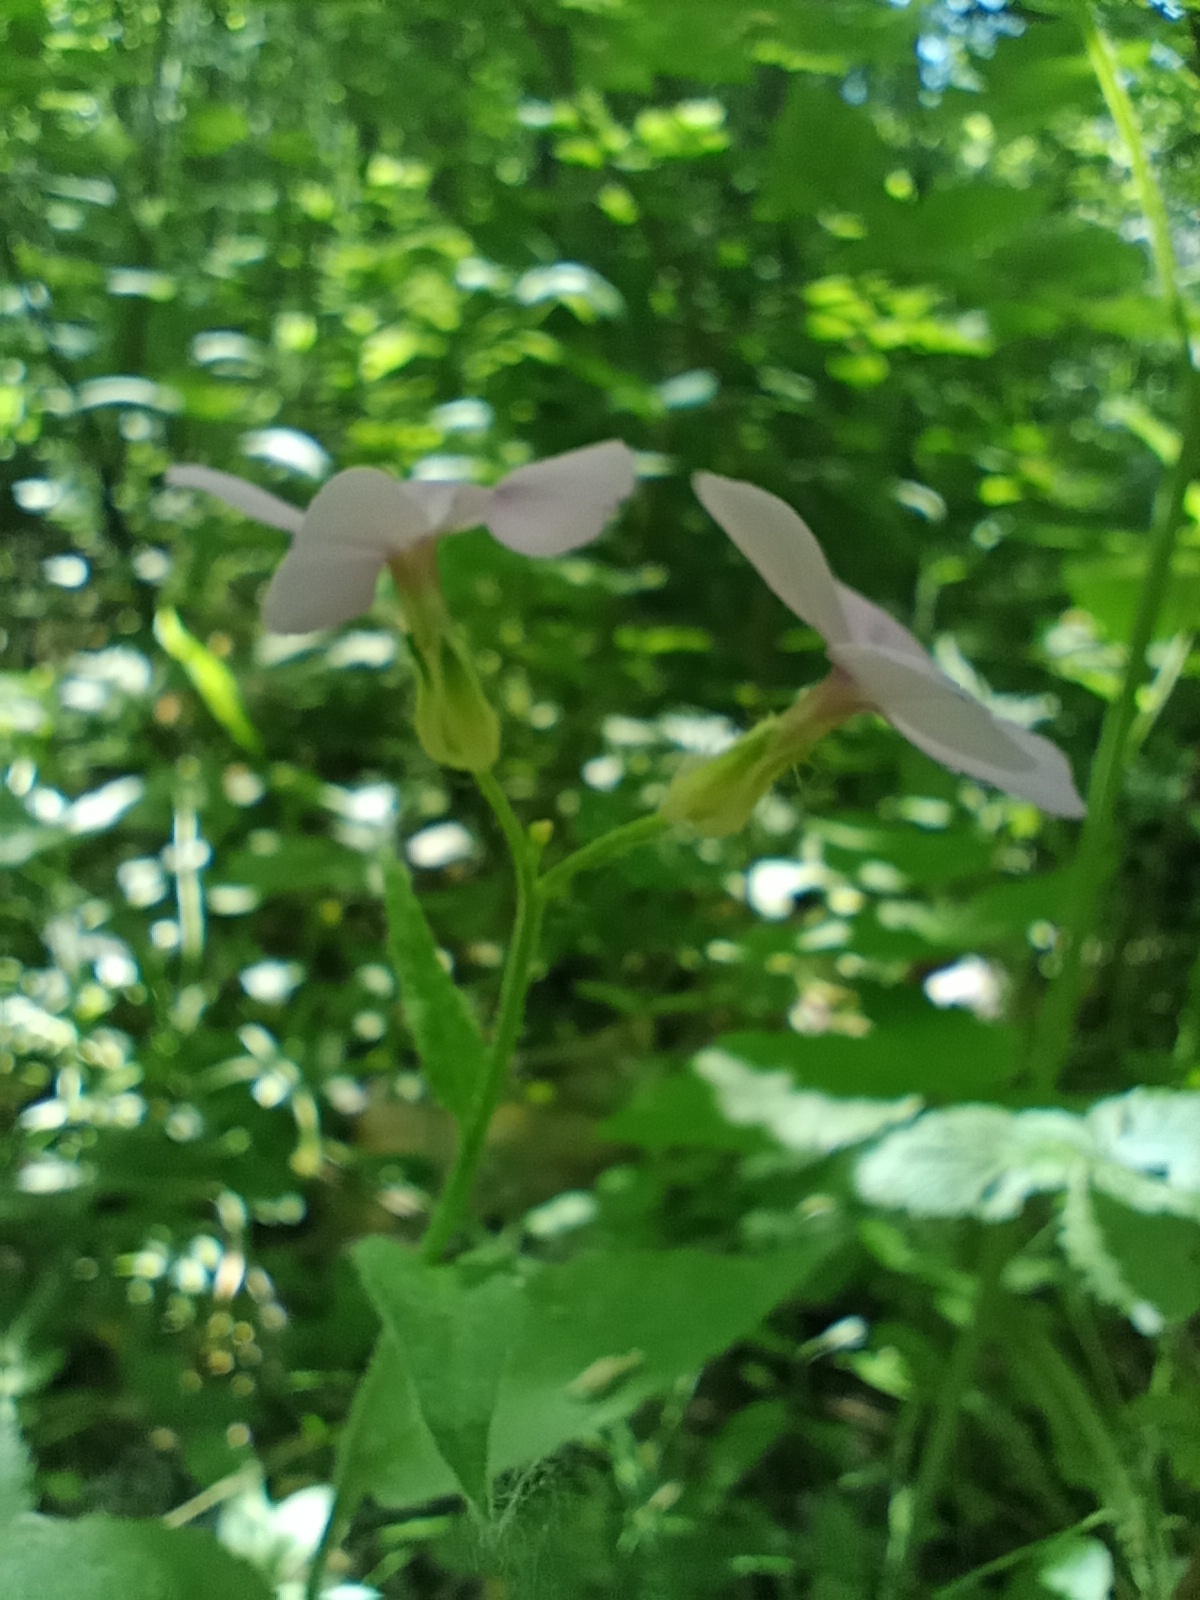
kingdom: Plantae
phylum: Tracheophyta
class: Magnoliopsida
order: Brassicales
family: Brassicaceae
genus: Hesperis
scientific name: Hesperis matronalis
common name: Dame's-violet
